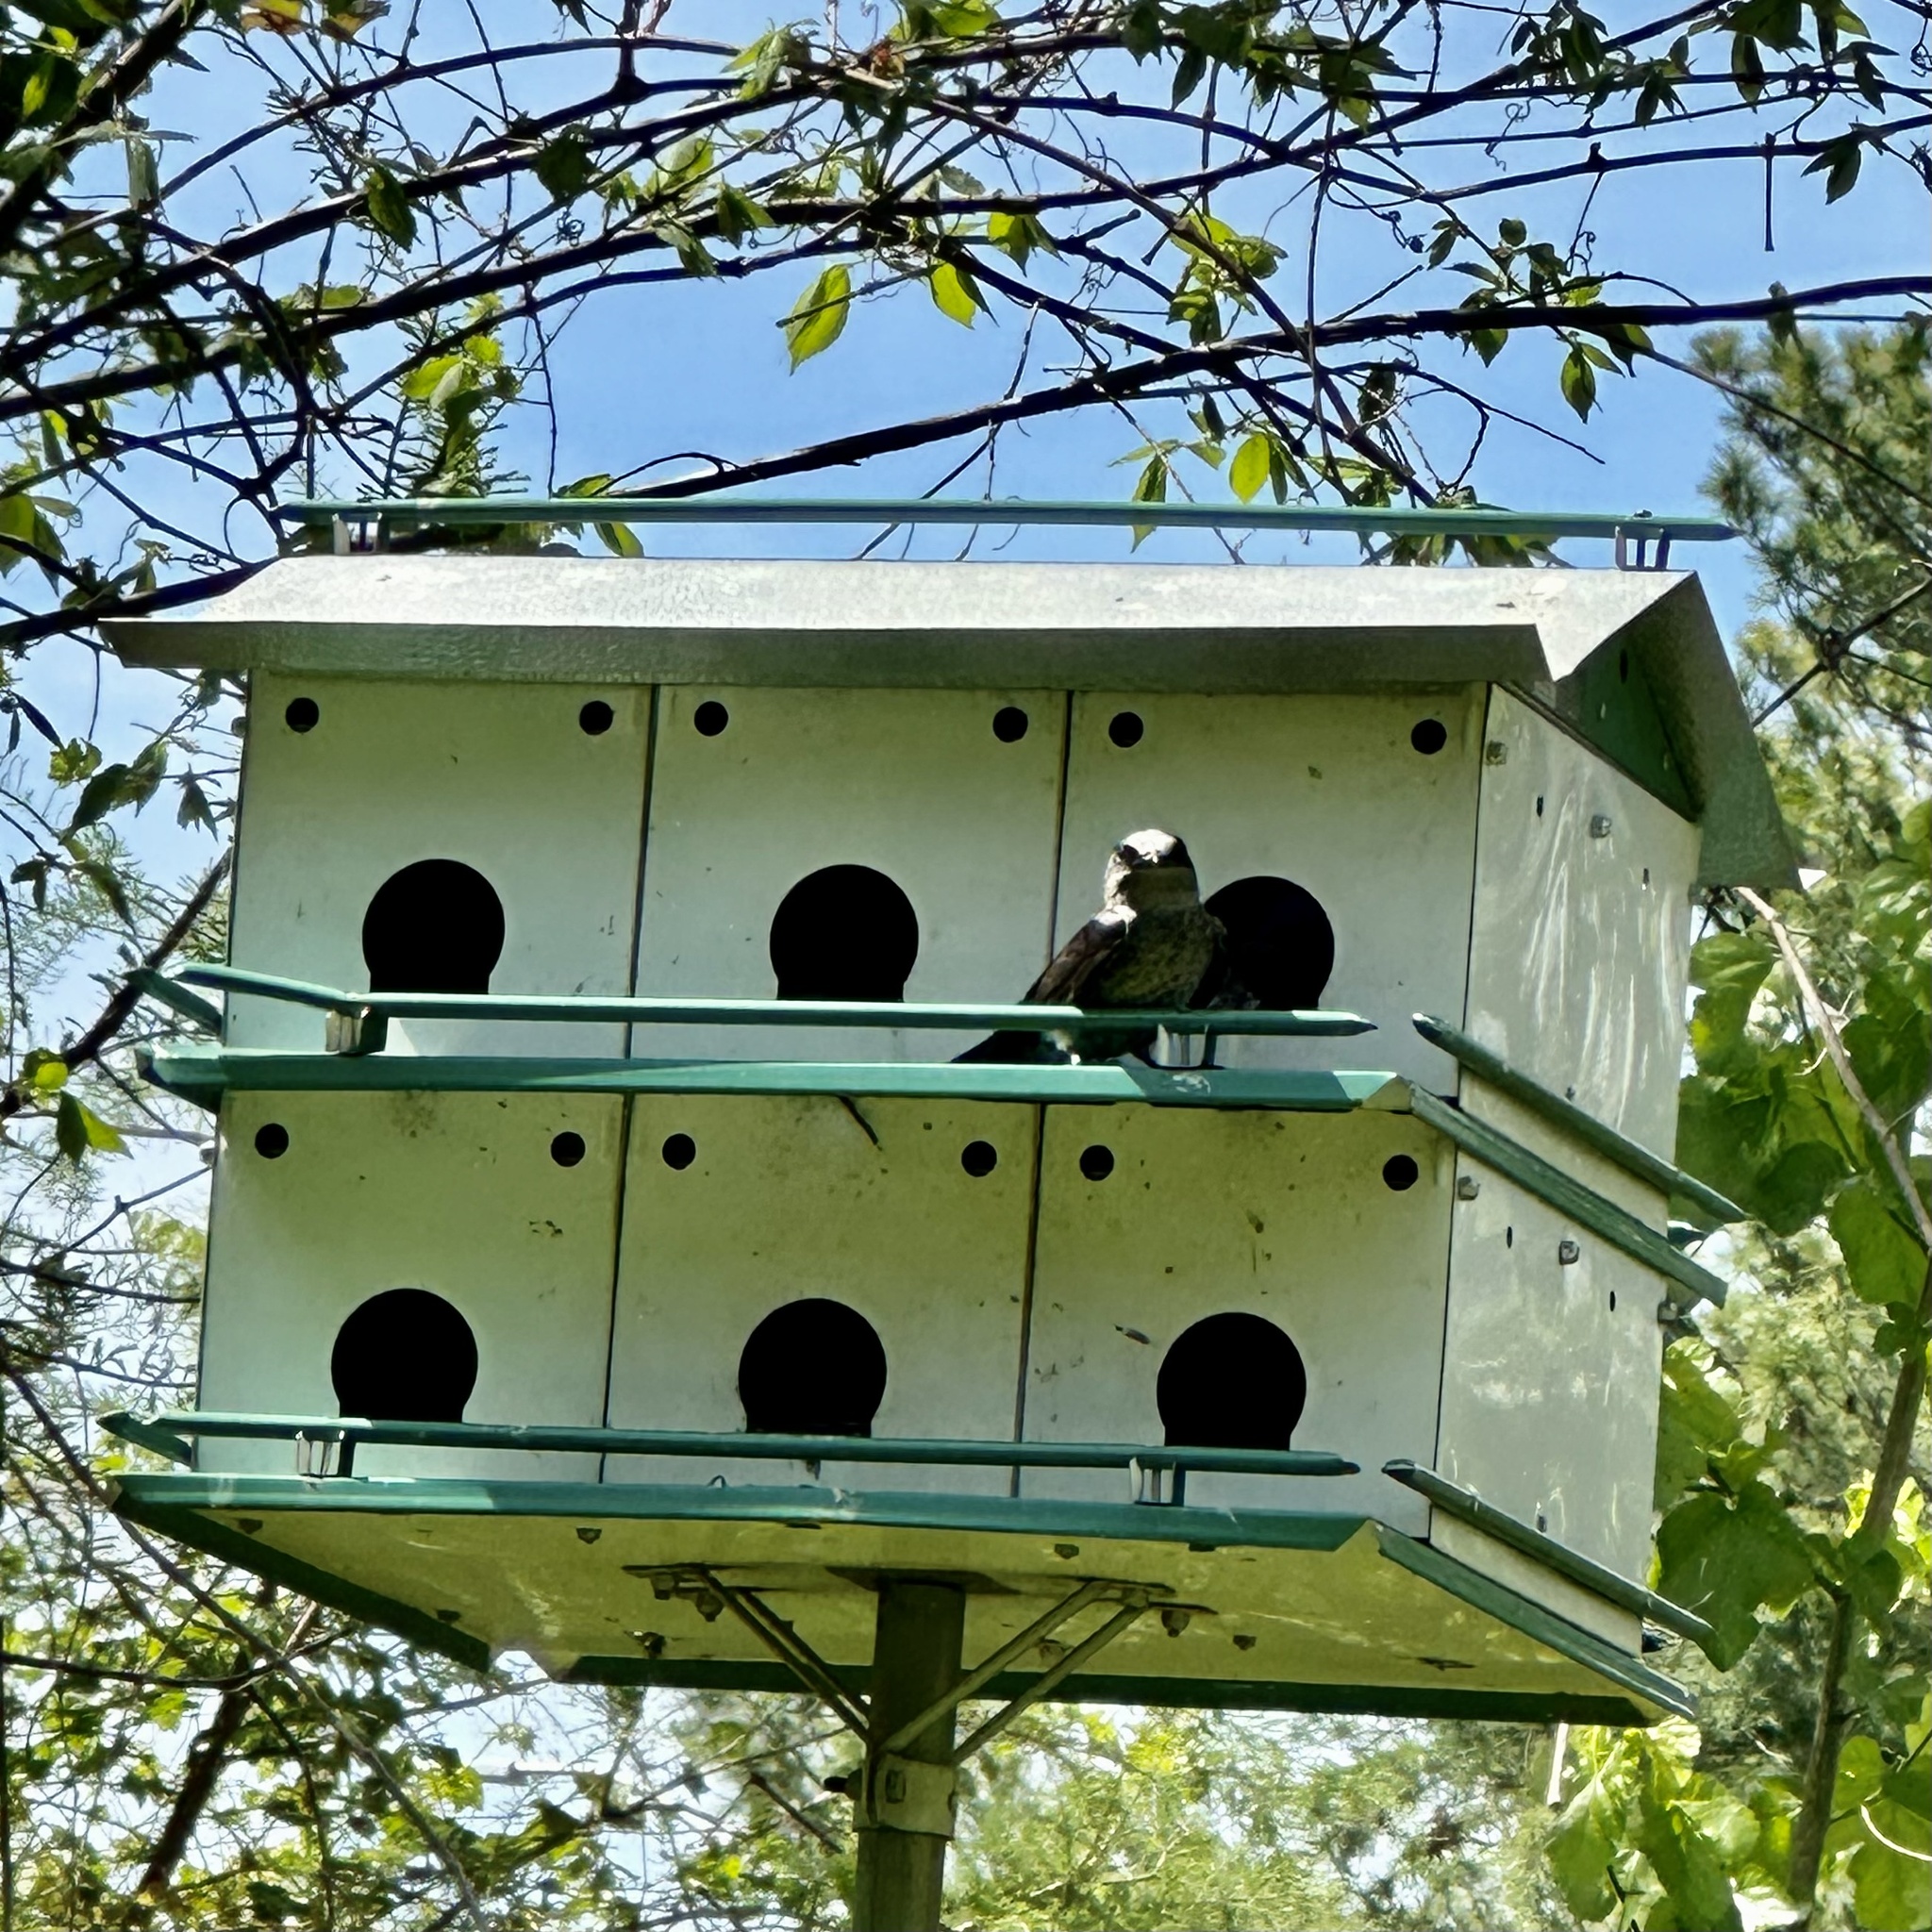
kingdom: Animalia
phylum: Chordata
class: Aves
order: Passeriformes
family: Hirundinidae
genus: Progne
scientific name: Progne subis
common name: Purple martin
